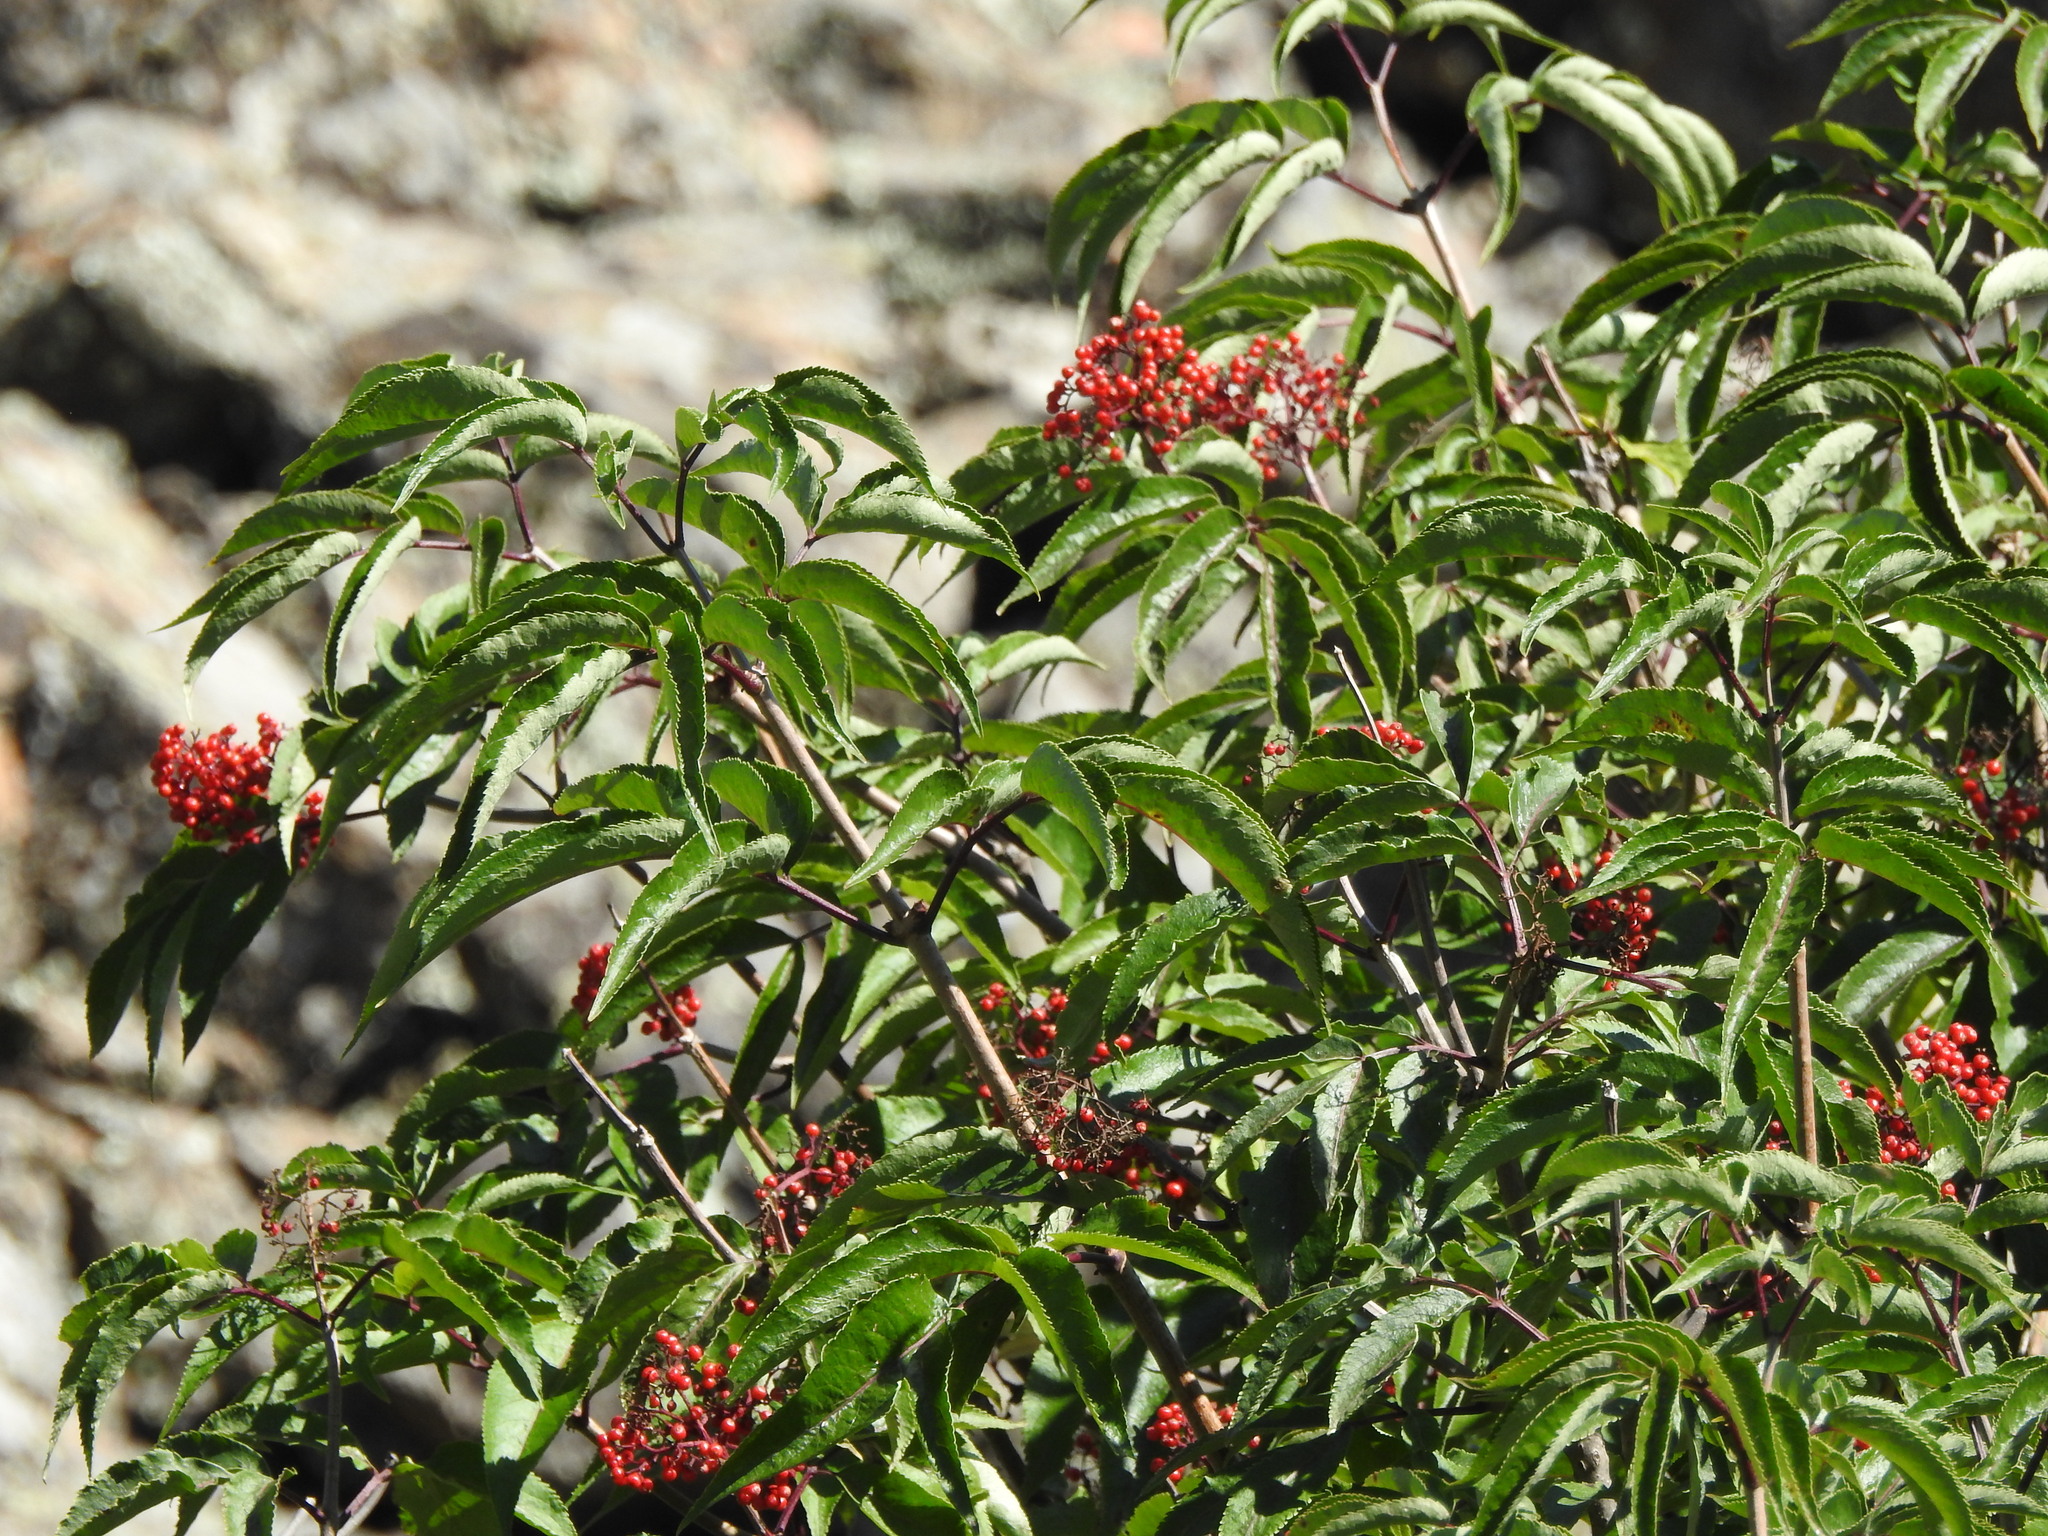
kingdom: Plantae
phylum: Tracheophyta
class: Magnoliopsida
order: Dipsacales
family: Viburnaceae
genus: Sambucus
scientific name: Sambucus sibirica
